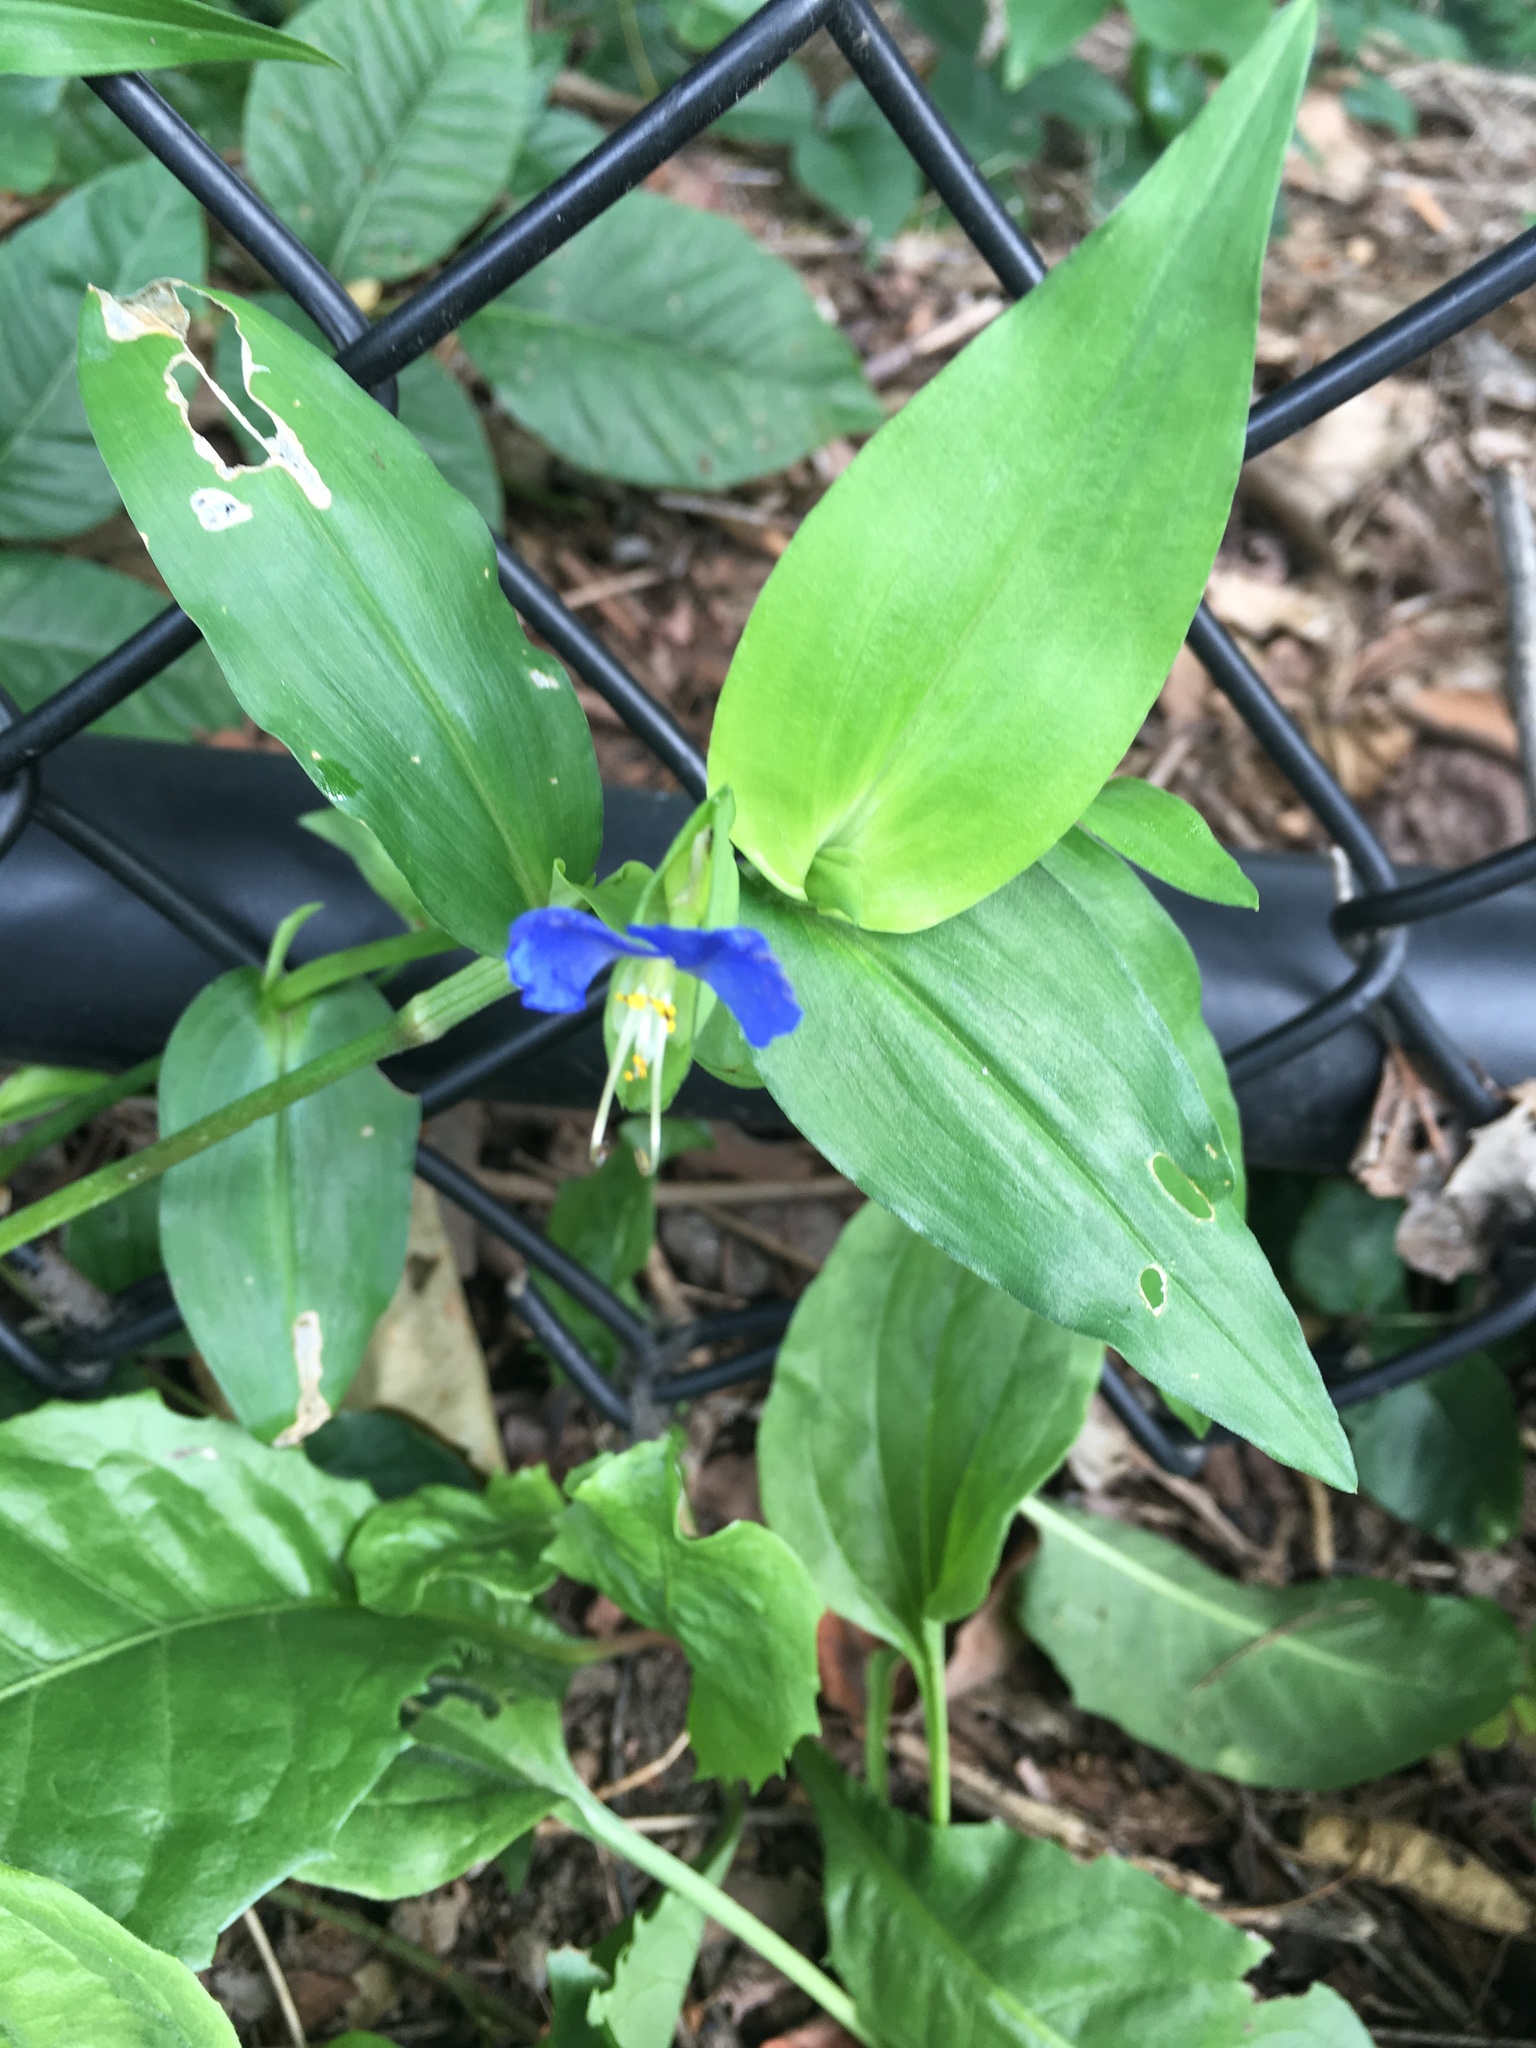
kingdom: Plantae
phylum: Tracheophyta
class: Liliopsida
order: Commelinales
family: Commelinaceae
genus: Commelina
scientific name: Commelina communis
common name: Asiatic dayflower
